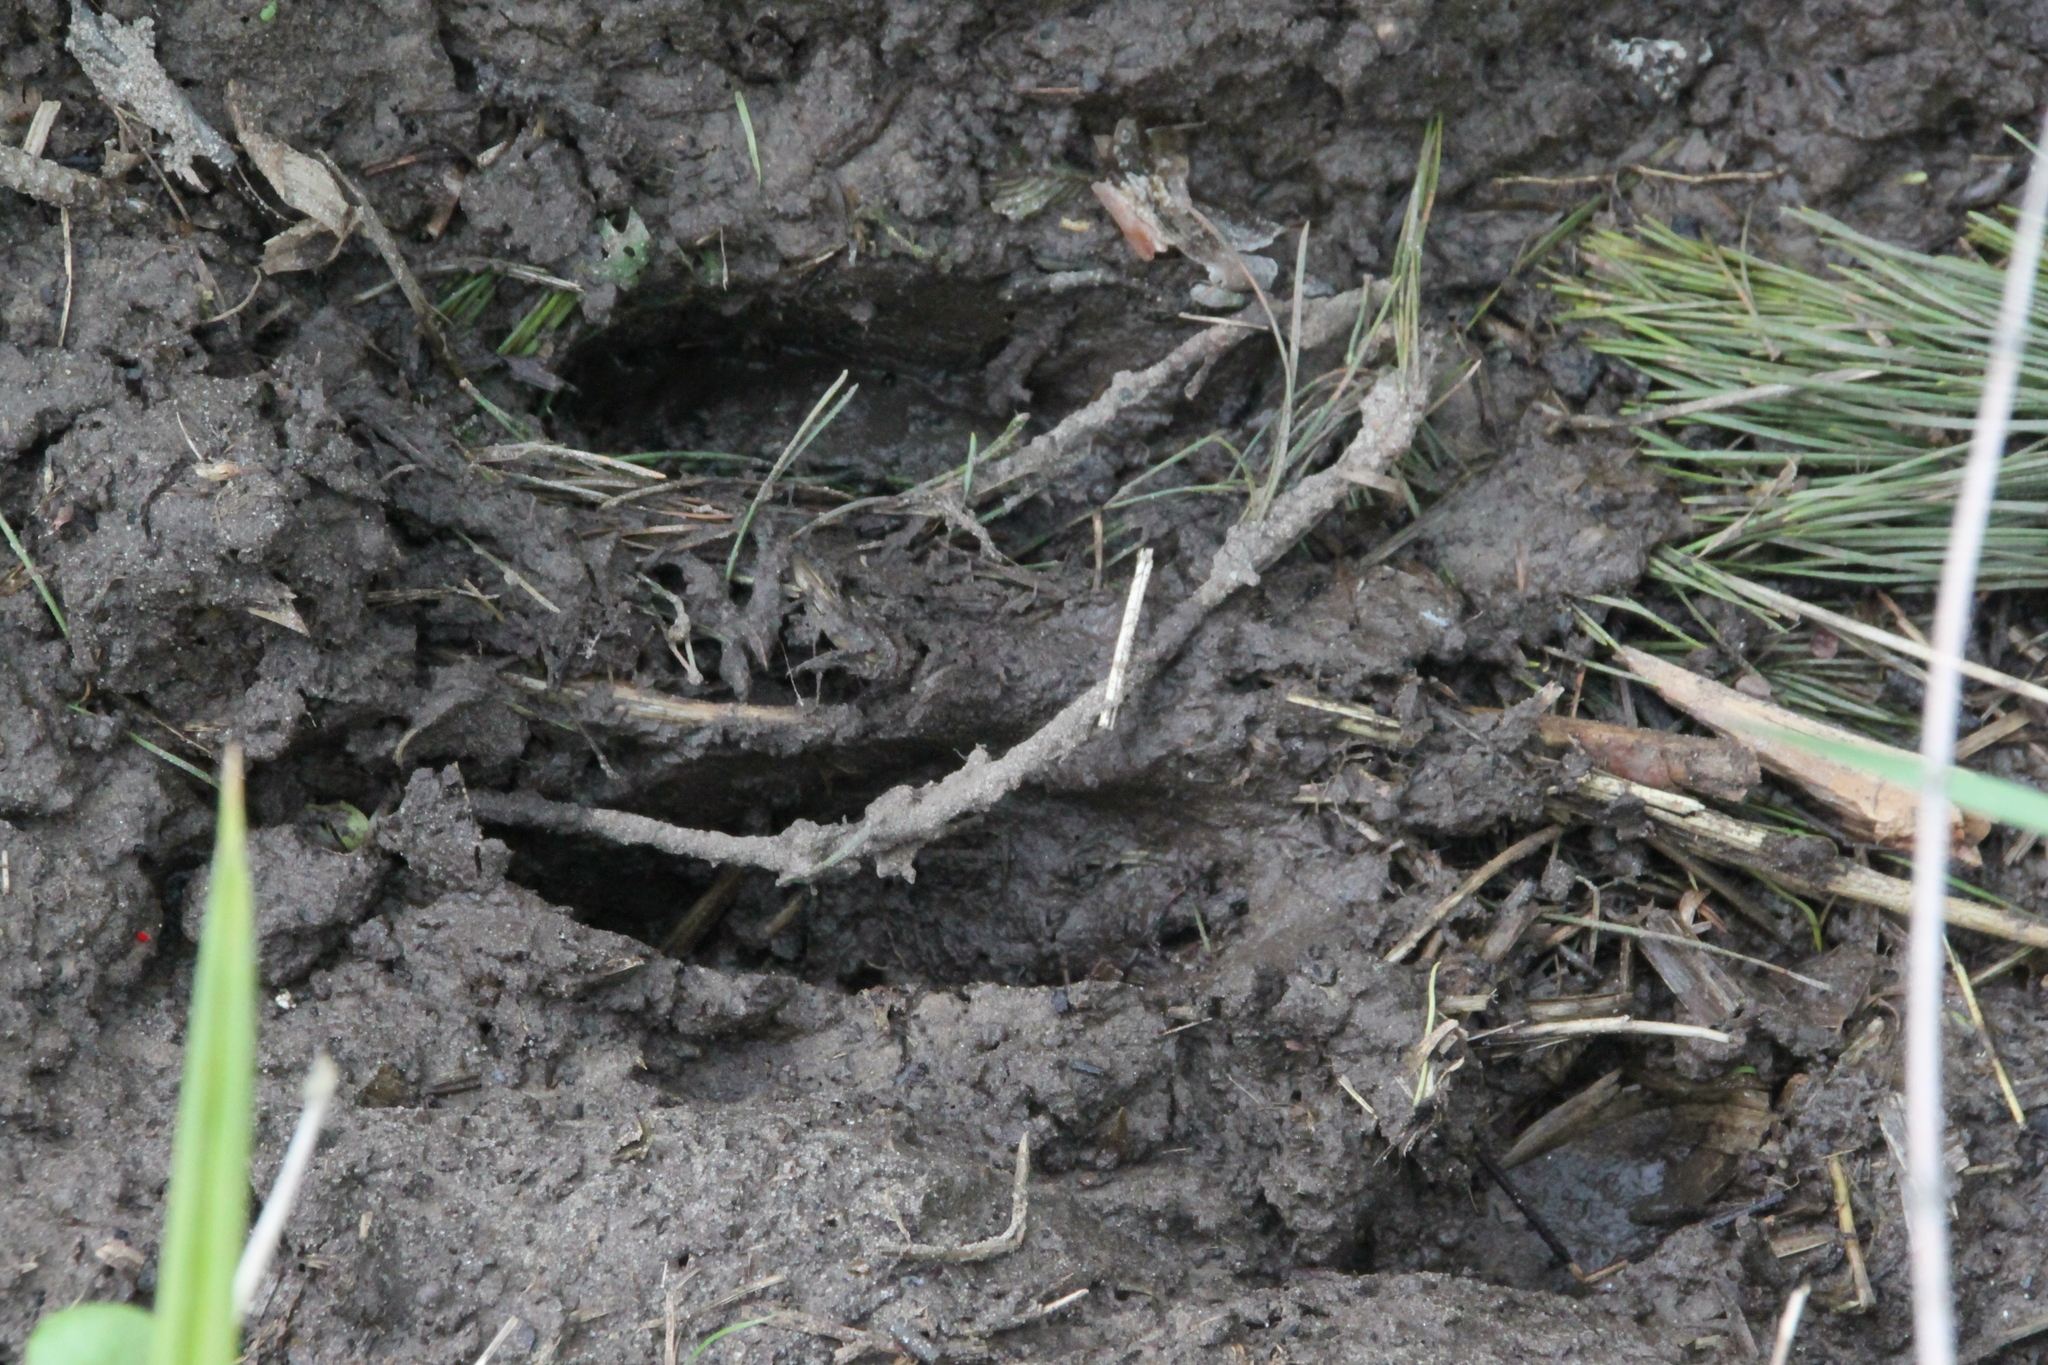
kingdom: Animalia
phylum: Chordata
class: Mammalia
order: Artiodactyla
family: Cervidae
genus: Alces
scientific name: Alces alces
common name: Moose
